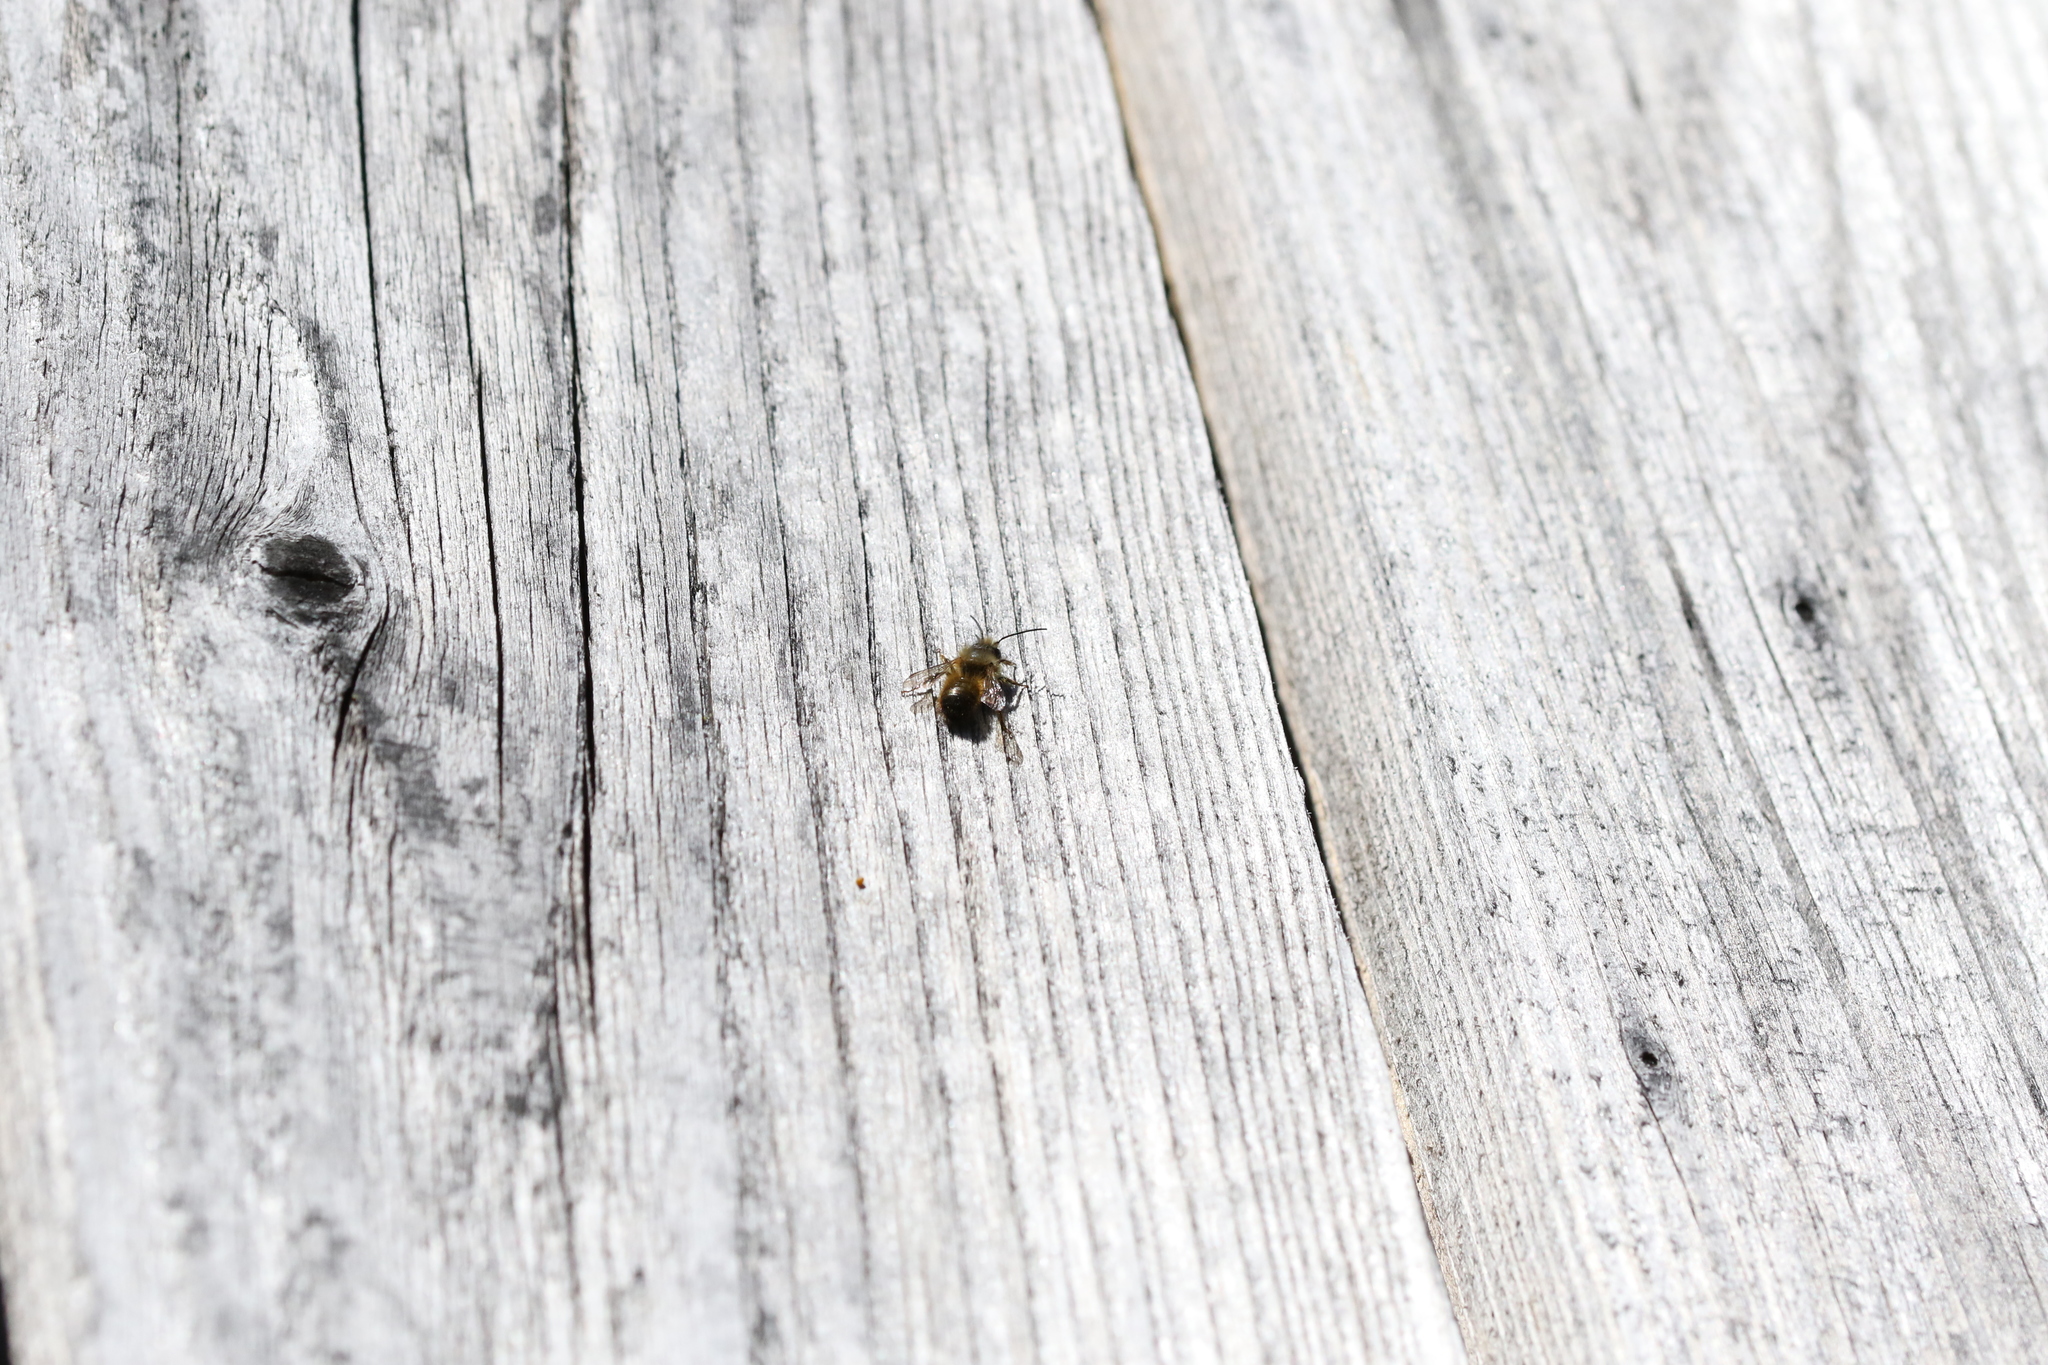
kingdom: Animalia
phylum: Arthropoda
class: Insecta
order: Hymenoptera
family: Megachilidae
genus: Osmia
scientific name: Osmia bicornis
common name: Red mason bee
